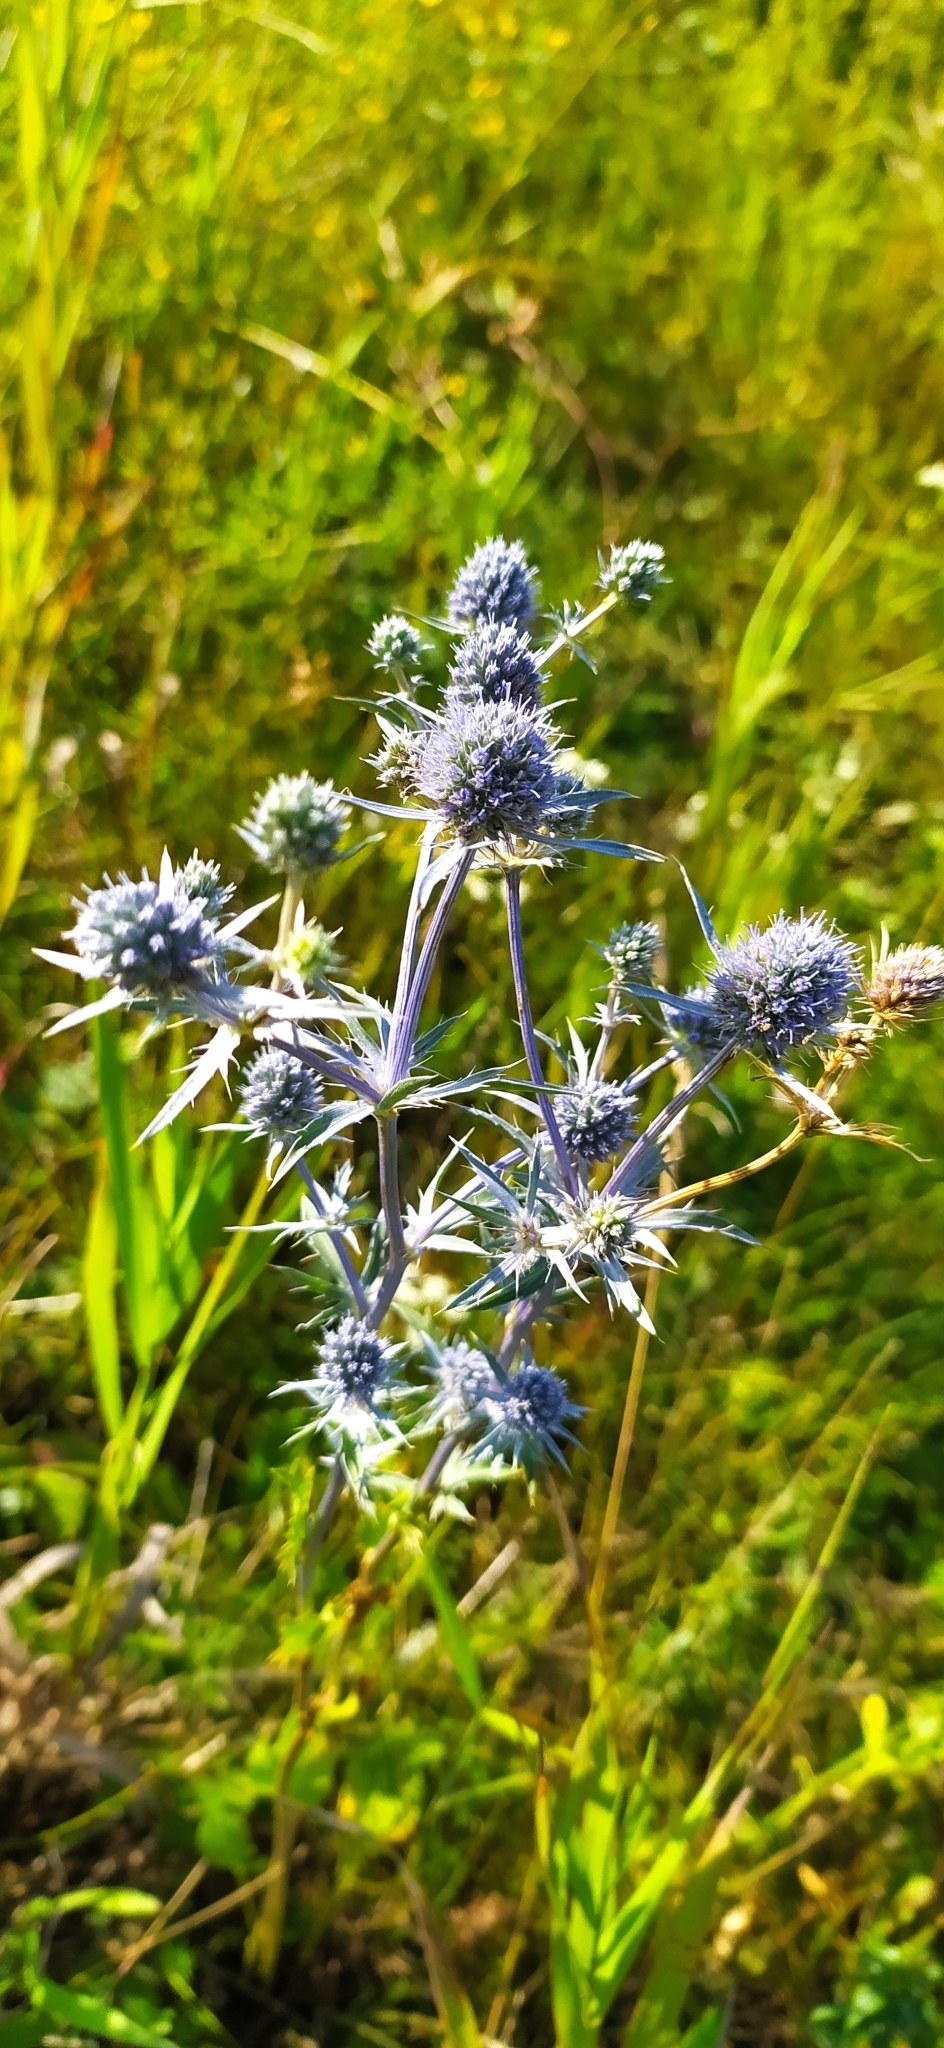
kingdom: Plantae
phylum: Tracheophyta
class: Magnoliopsida
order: Apiales
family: Apiaceae
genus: Eryngium
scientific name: Eryngium planum
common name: Blue eryngo
